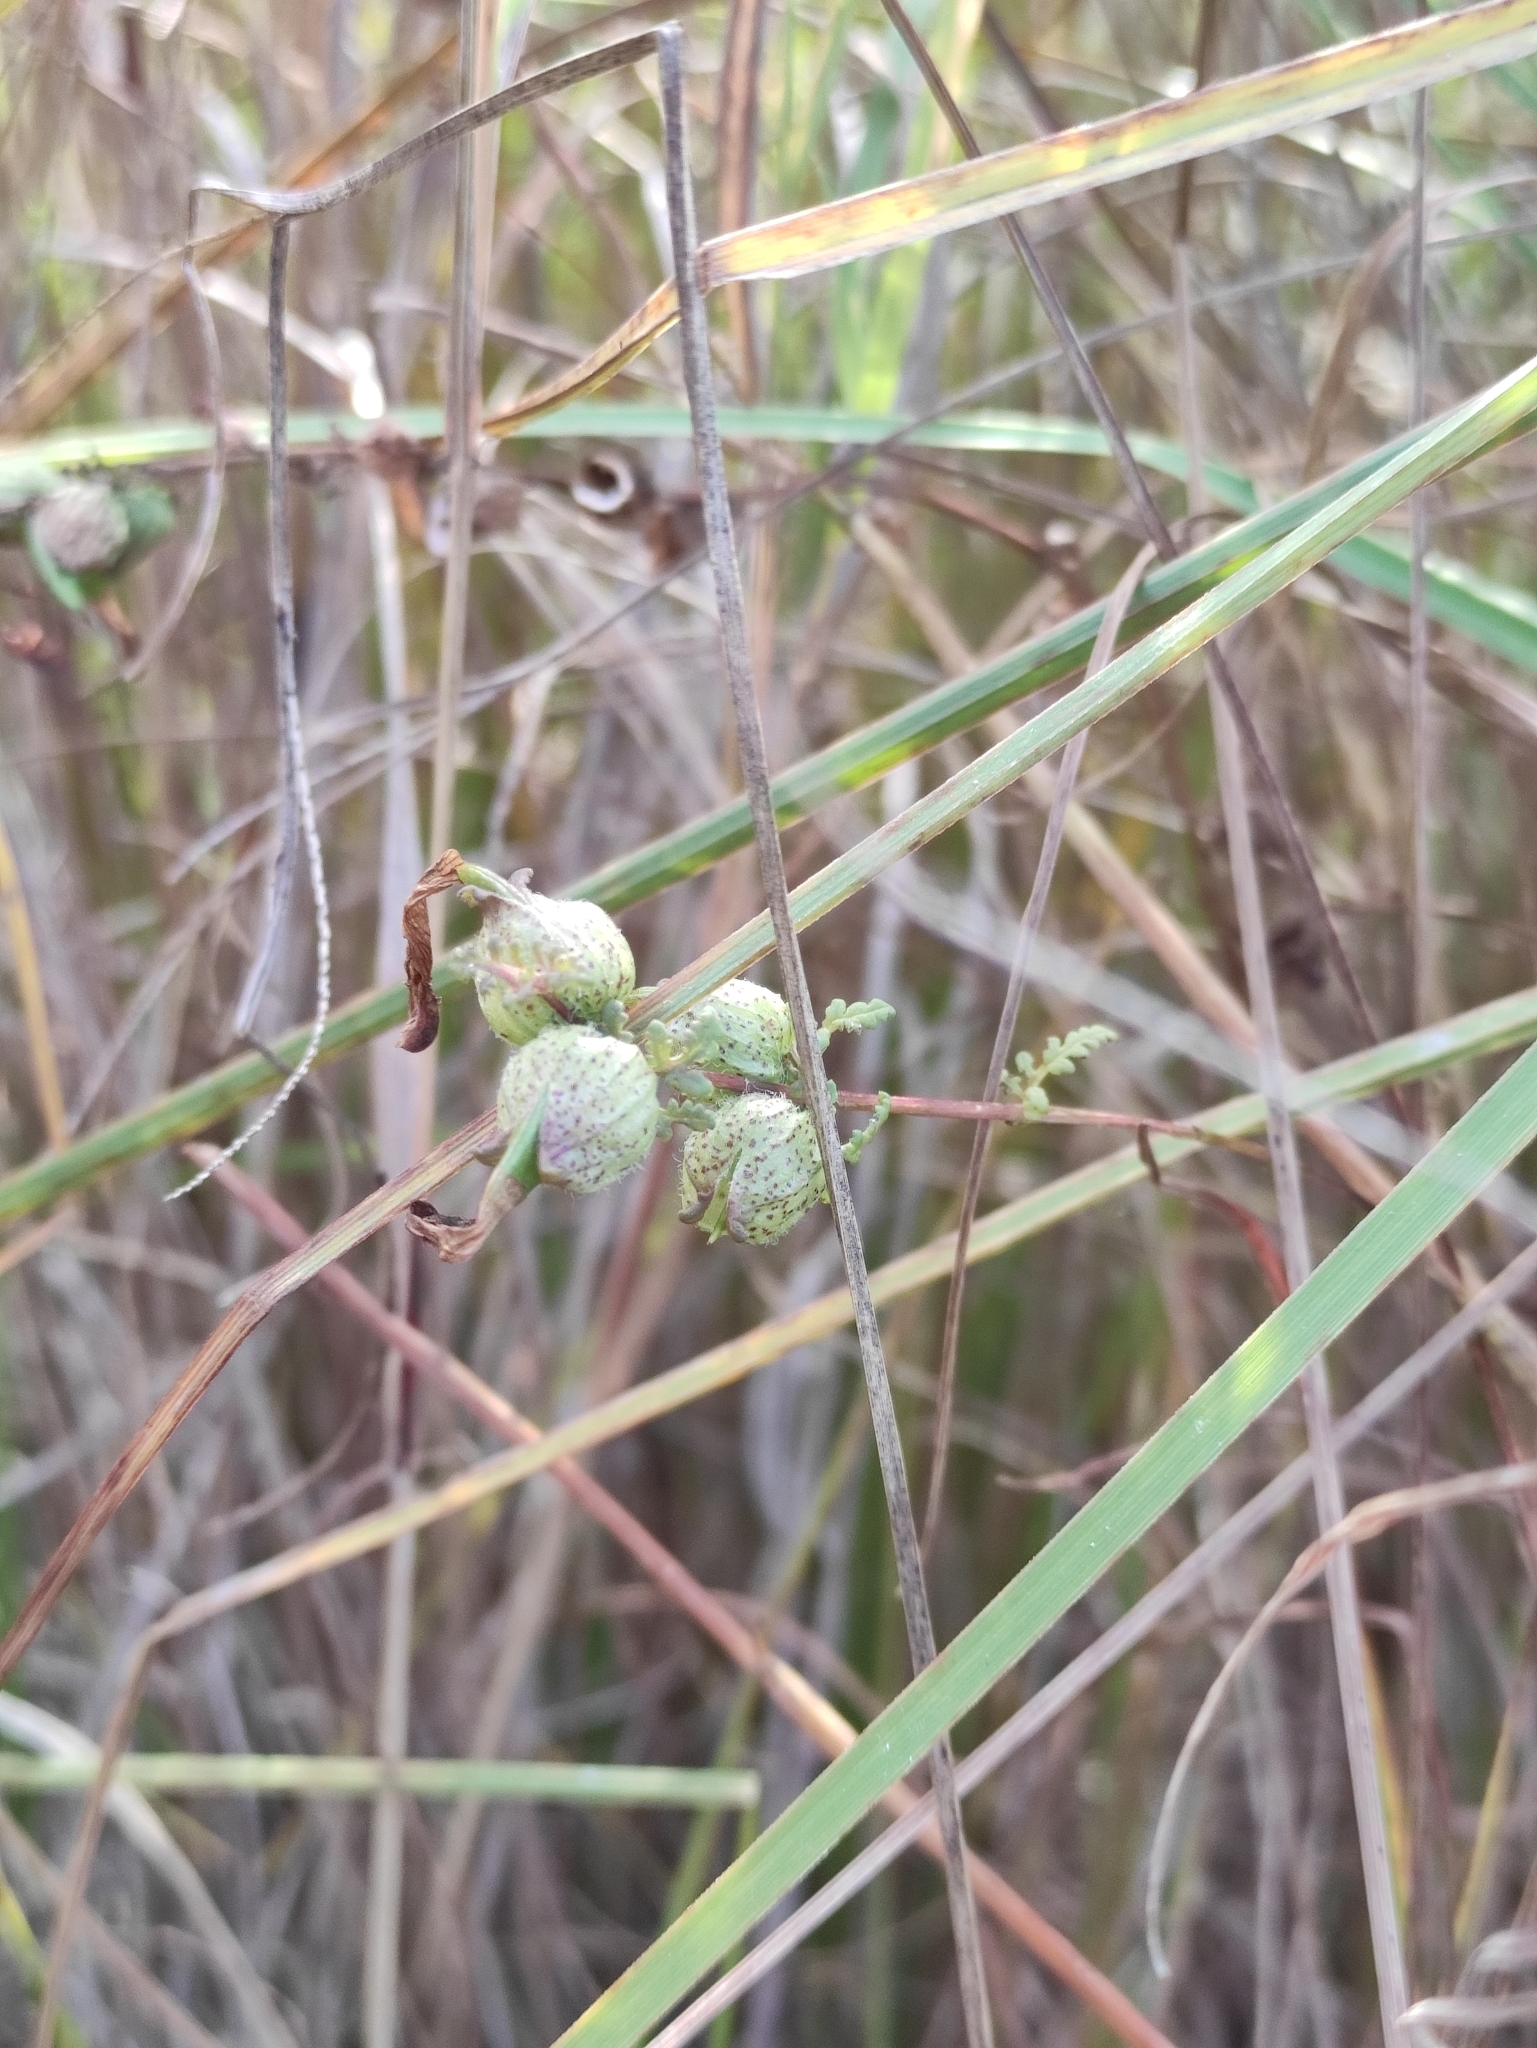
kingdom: Plantae
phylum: Tracheophyta
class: Magnoliopsida
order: Lamiales
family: Orobanchaceae
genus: Pedicularis
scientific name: Pedicularis karoi
